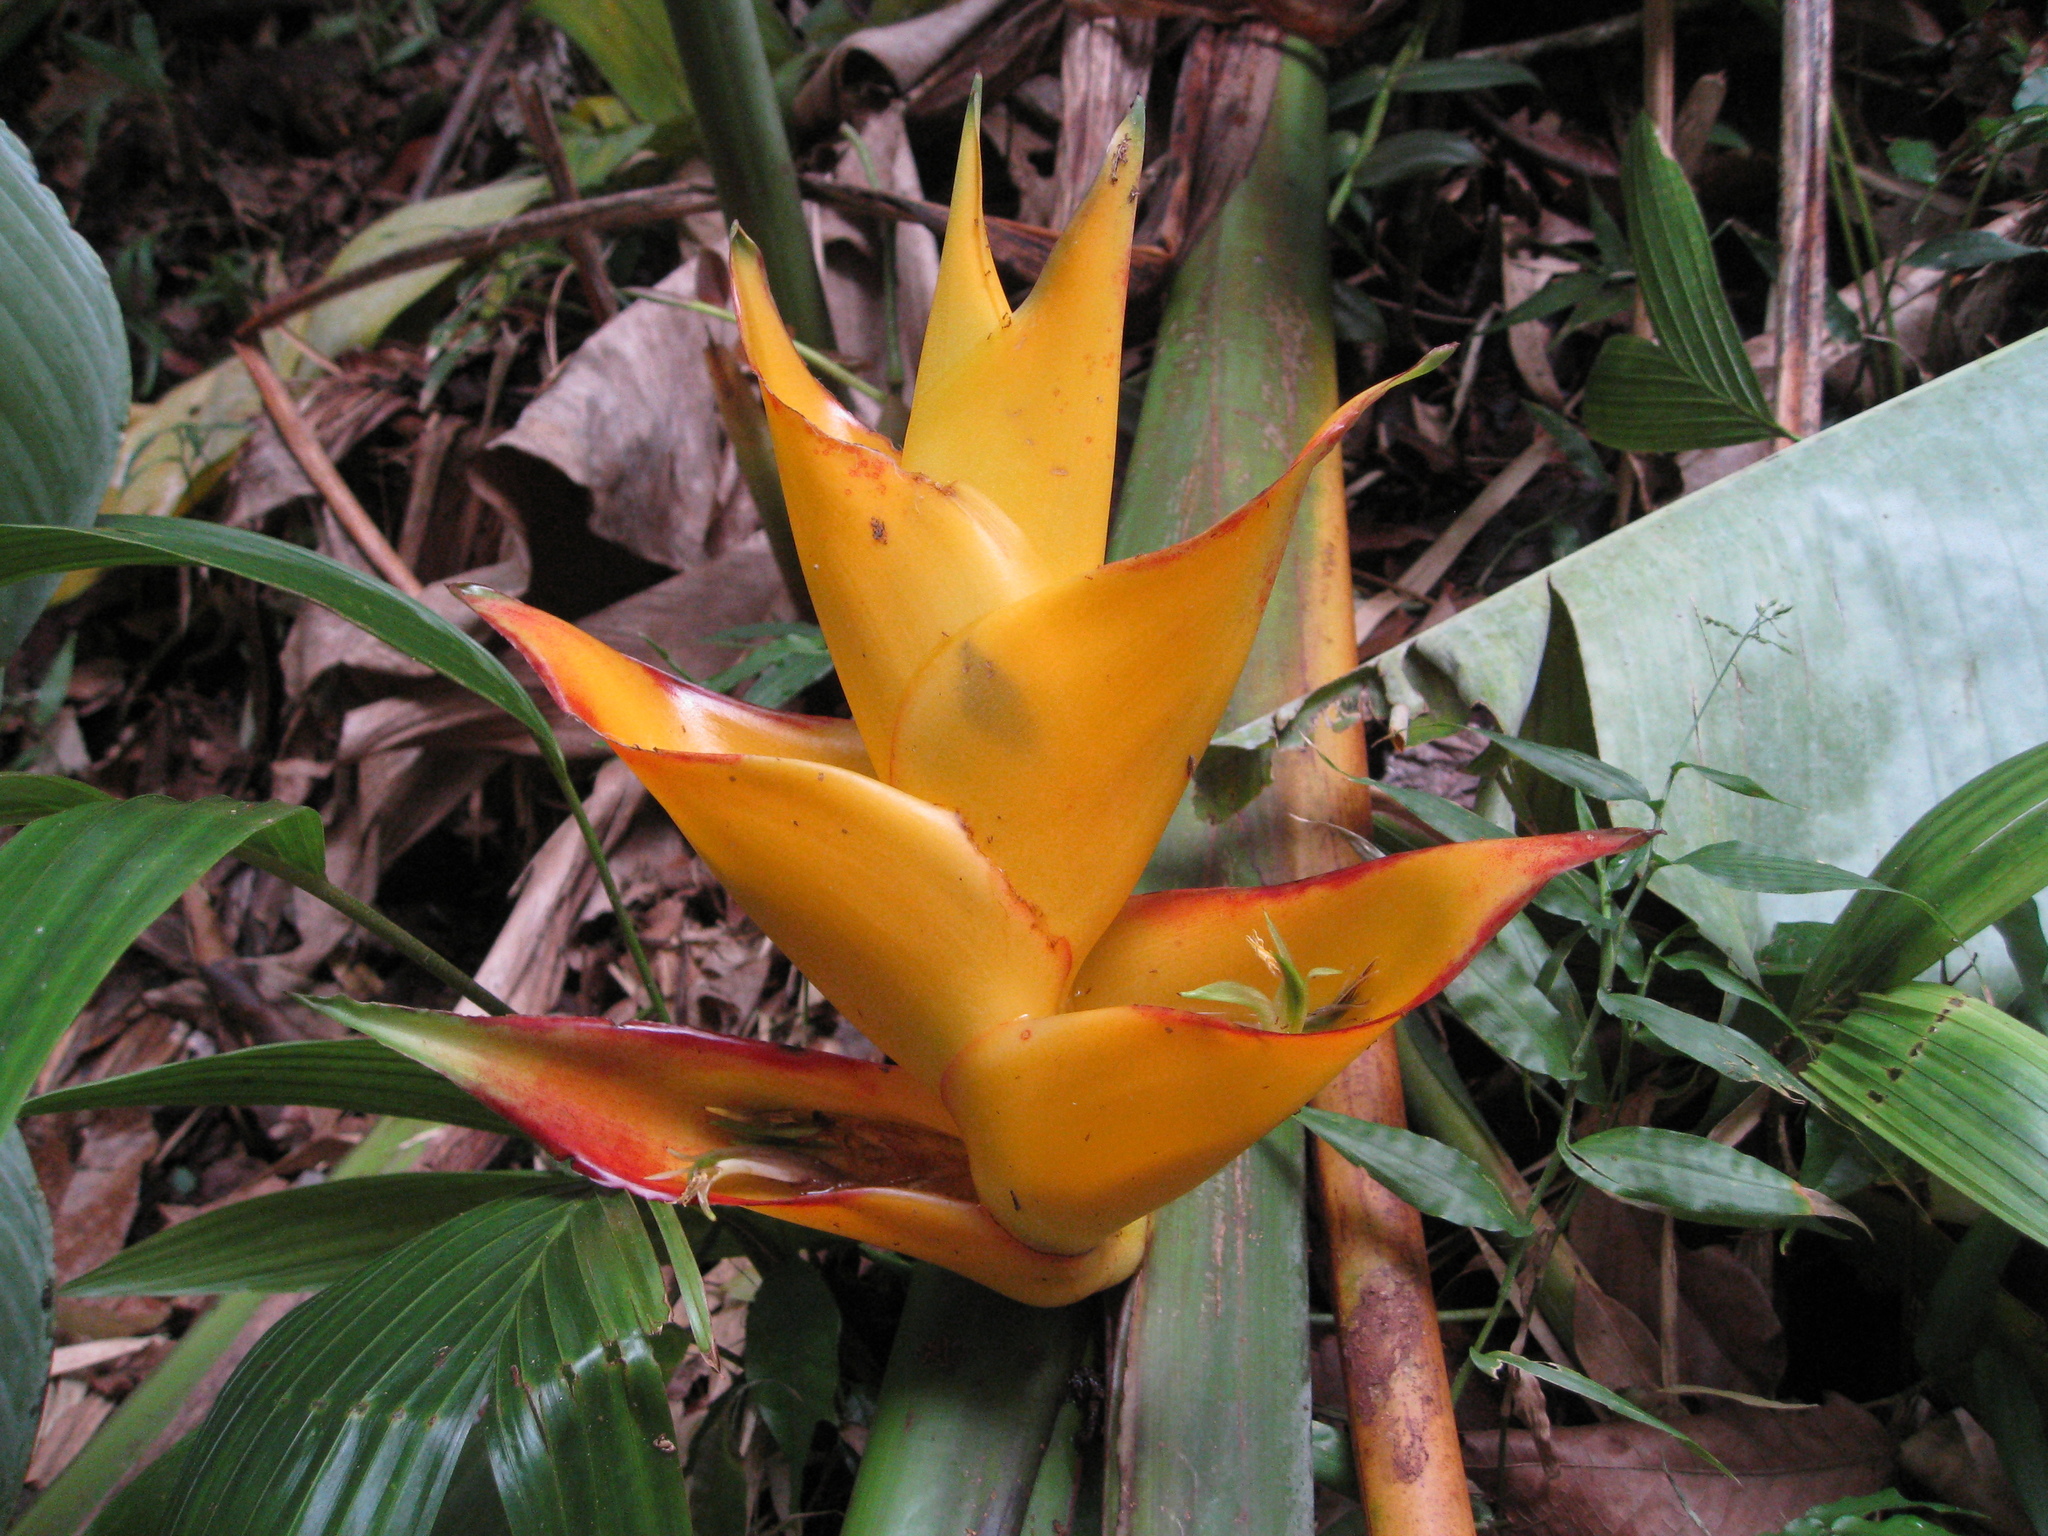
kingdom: Plantae
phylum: Tracheophyta
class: Liliopsida
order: Zingiberales
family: Heliconiaceae
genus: Heliconia
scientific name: Heliconia caribaea
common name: Wild plantain
